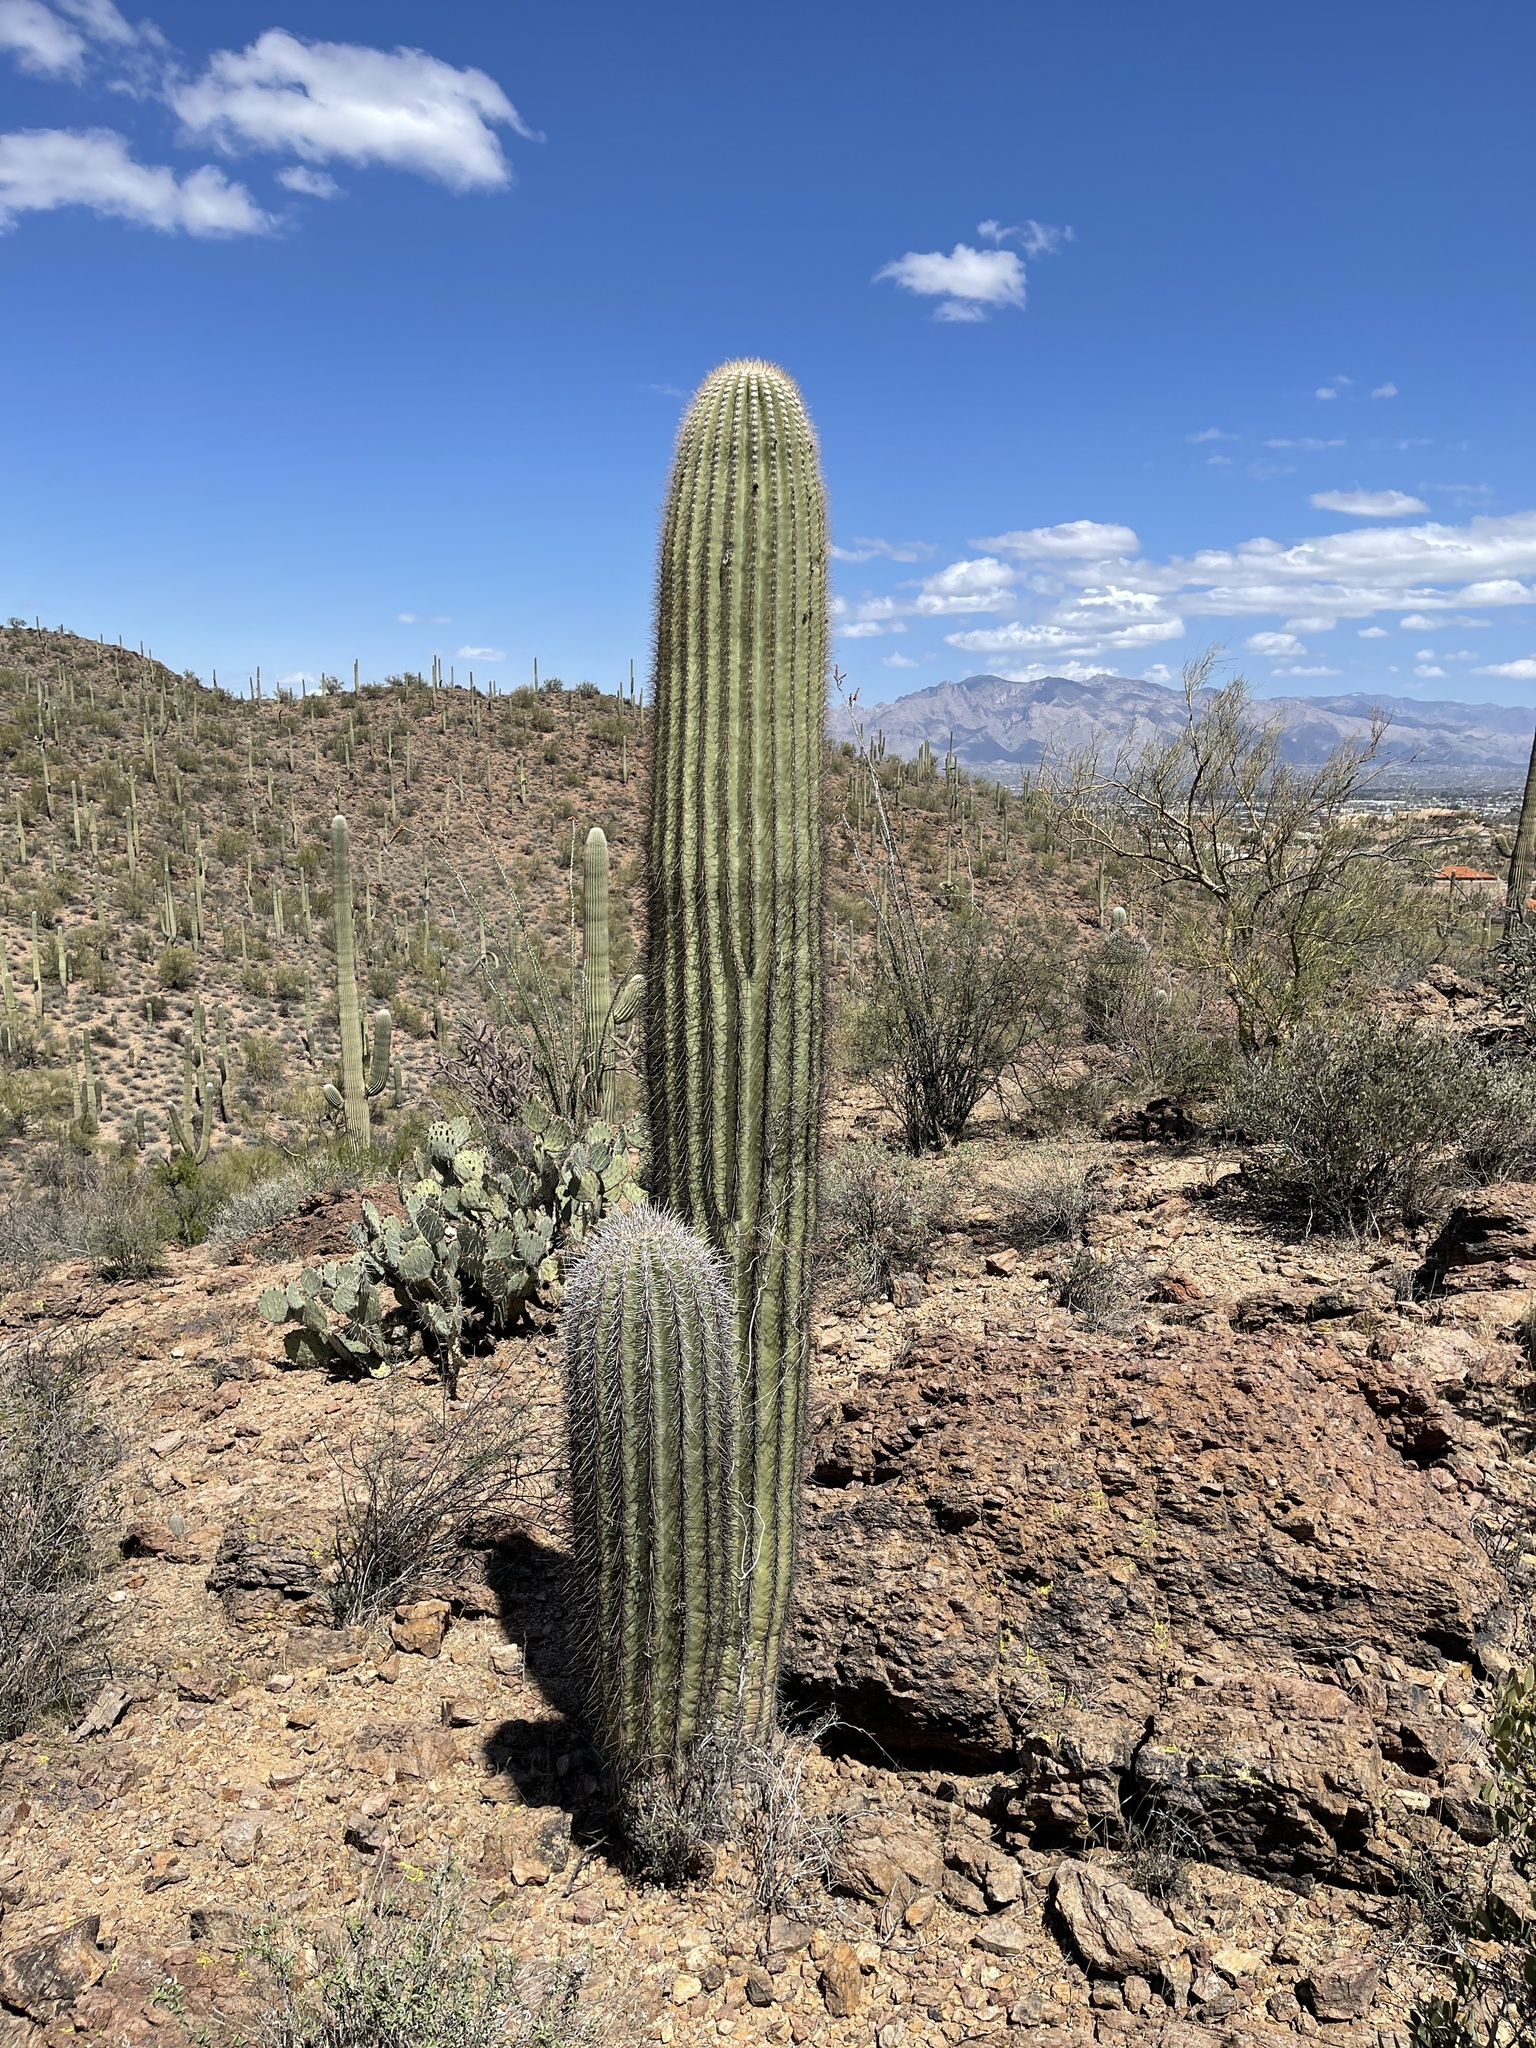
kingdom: Plantae
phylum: Tracheophyta
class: Magnoliopsida
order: Caryophyllales
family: Cactaceae
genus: Carnegiea
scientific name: Carnegiea gigantea
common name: Saguaro
